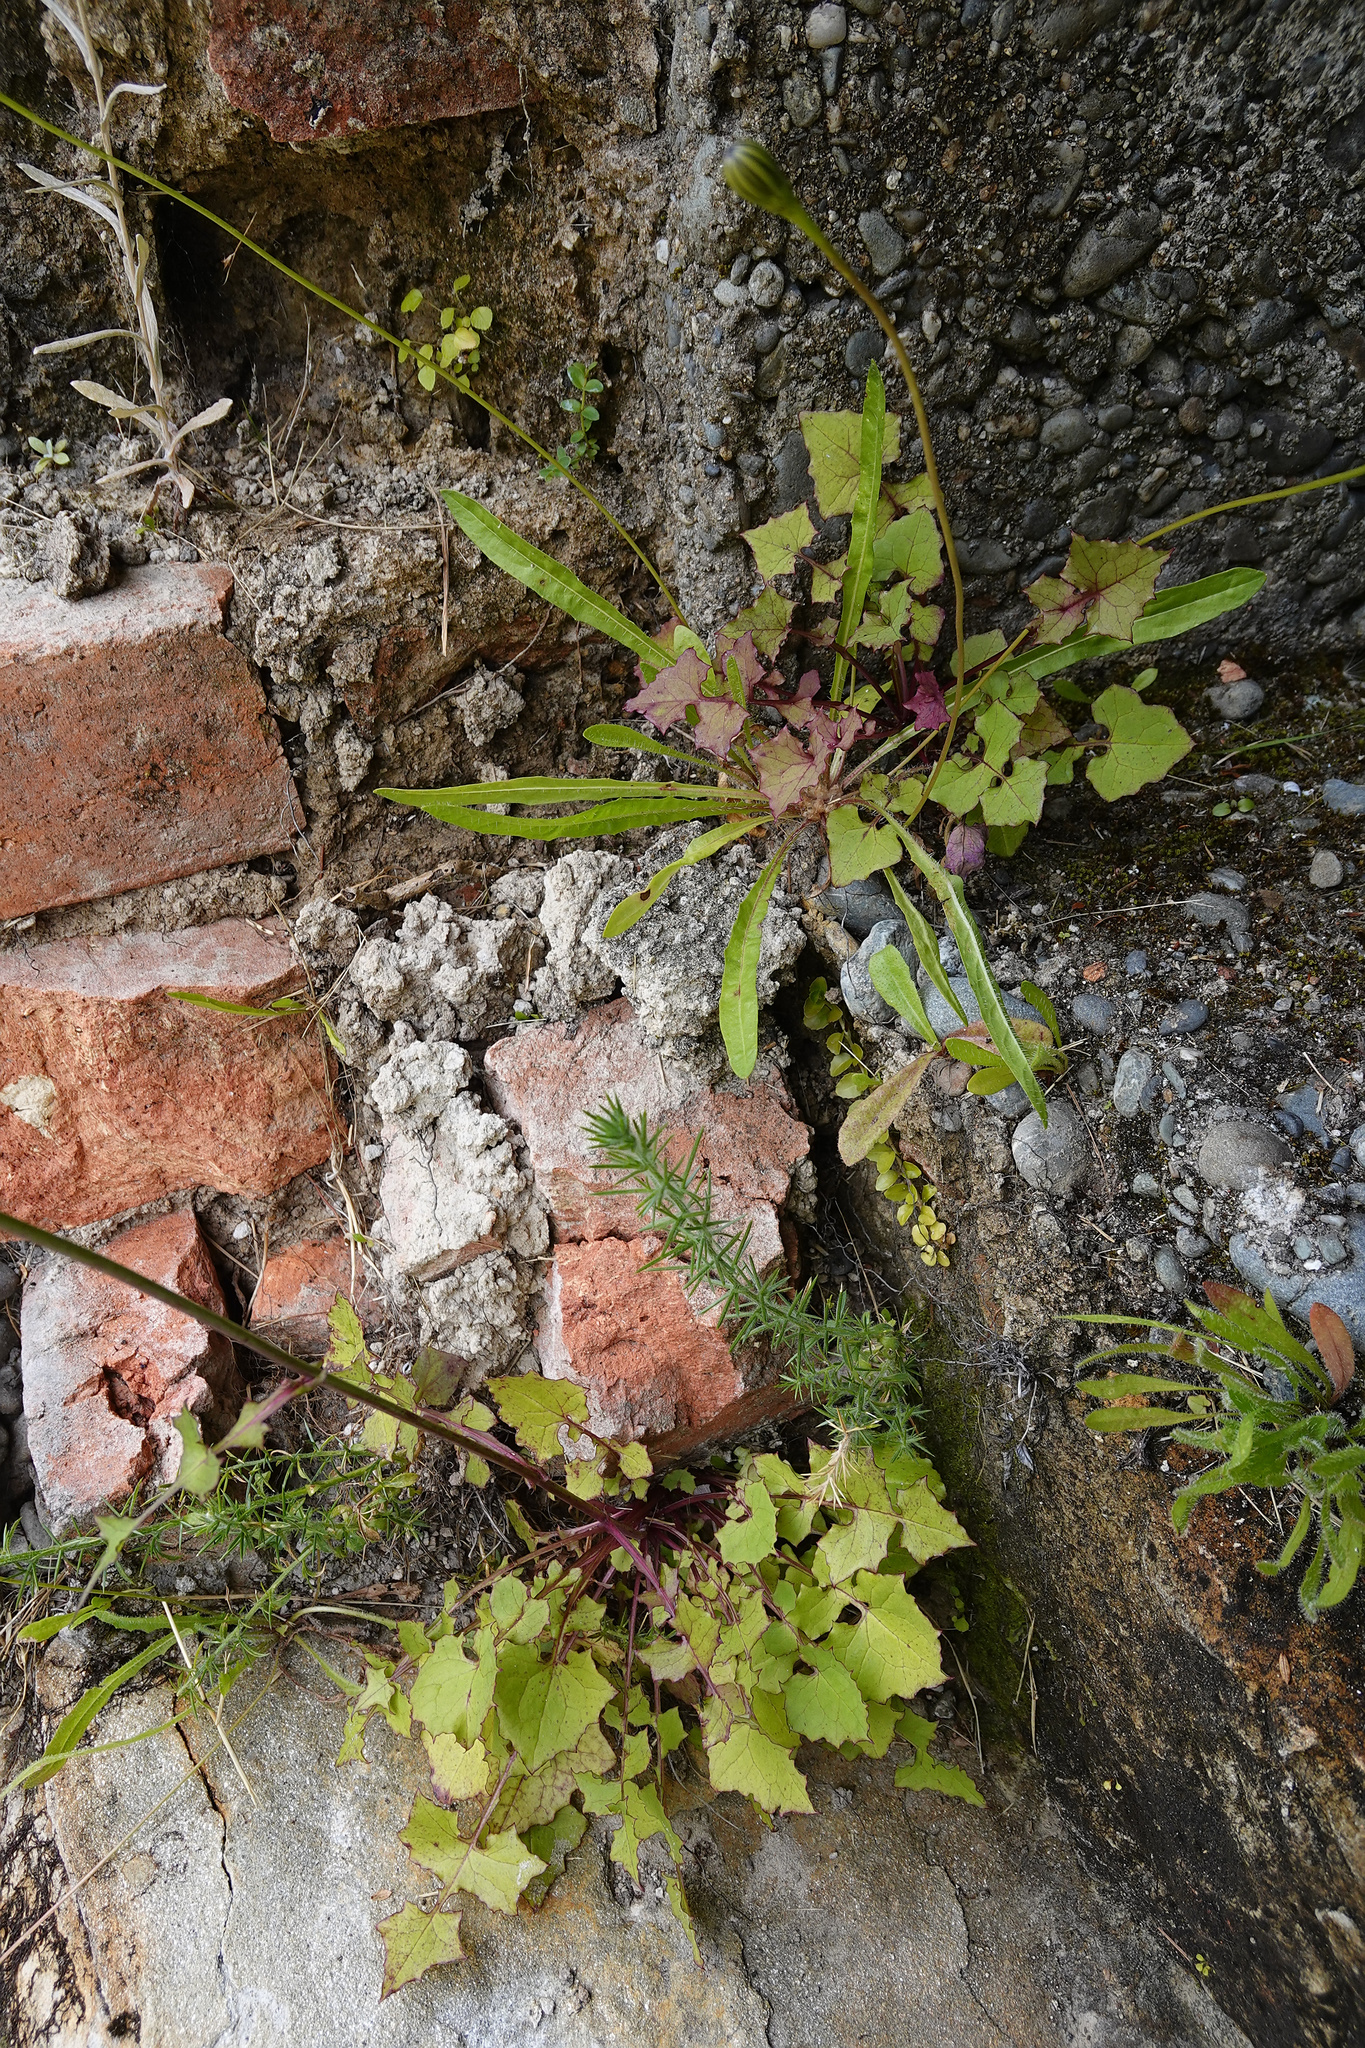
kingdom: Plantae
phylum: Tracheophyta
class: Magnoliopsida
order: Asterales
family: Asteraceae
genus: Mycelis
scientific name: Mycelis muralis
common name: Wall lettuce
